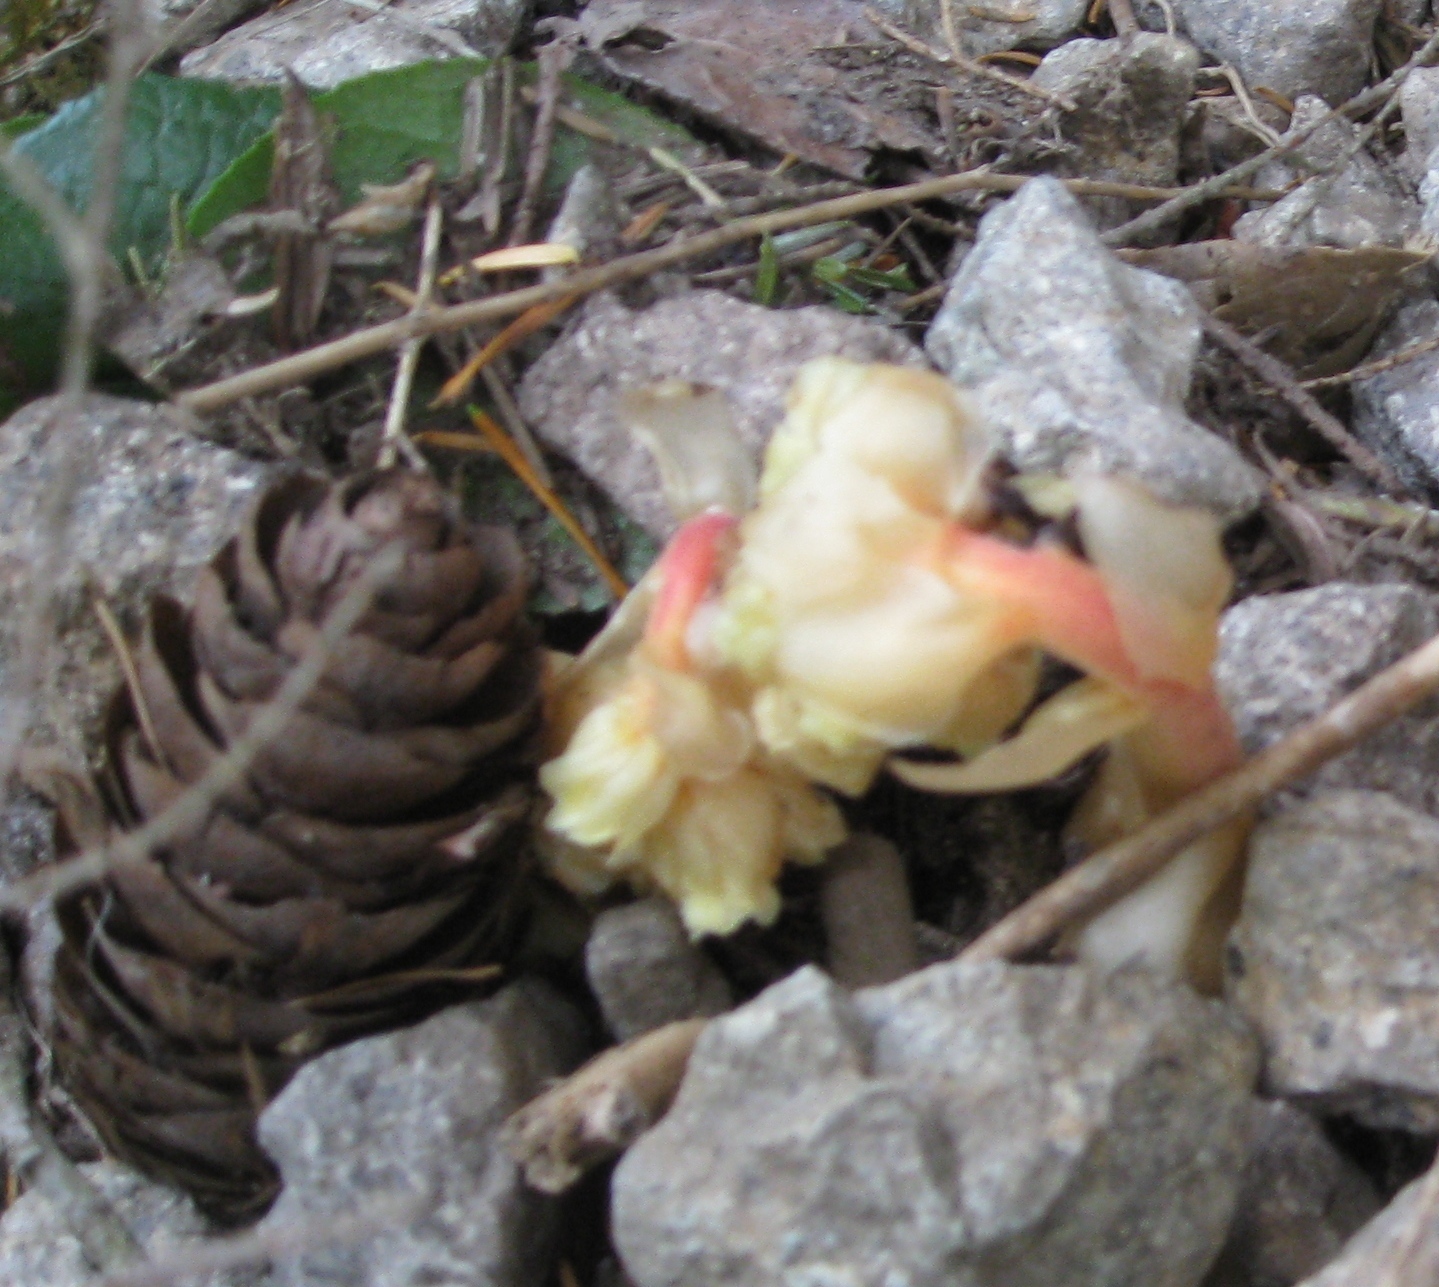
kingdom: Plantae
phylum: Tracheophyta
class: Magnoliopsida
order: Ericales
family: Ericaceae
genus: Hypopitys
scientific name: Hypopitys monotropa
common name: Yellow bird's-nest
